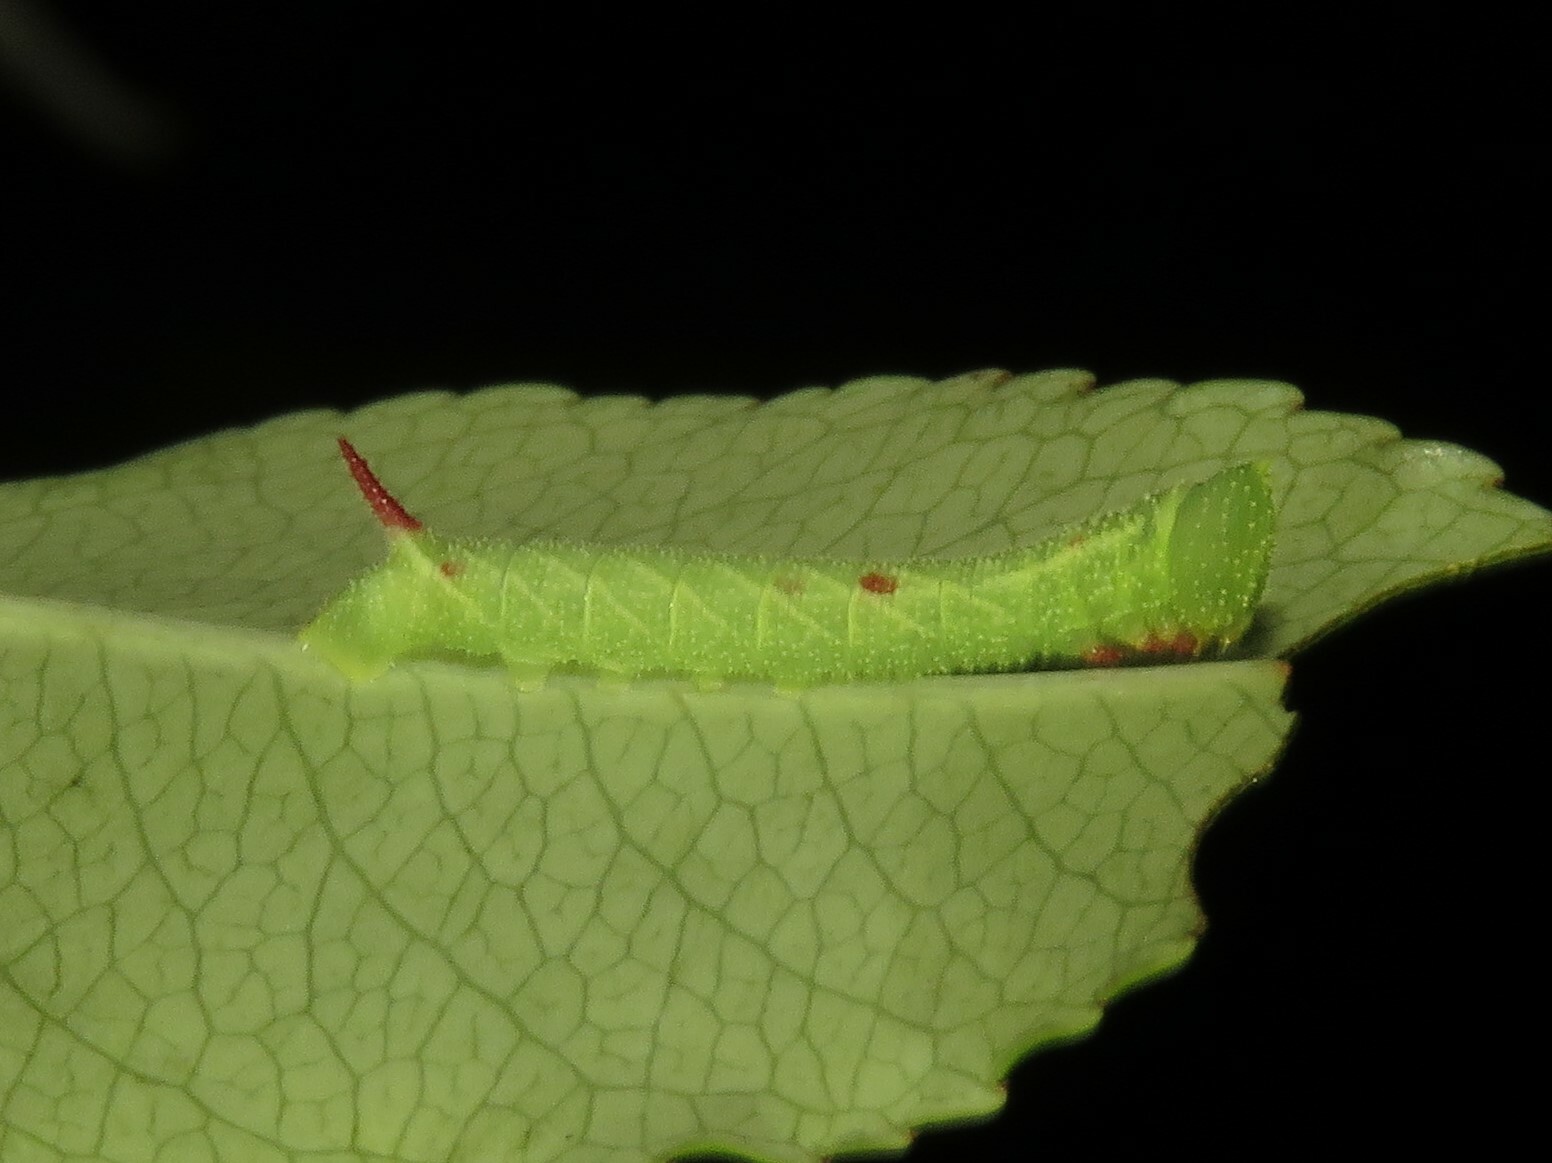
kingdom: Animalia
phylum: Arthropoda
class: Insecta
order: Lepidoptera
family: Sphingidae
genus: Paonias
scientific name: Paonias myops
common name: Small-eyed sphinx
